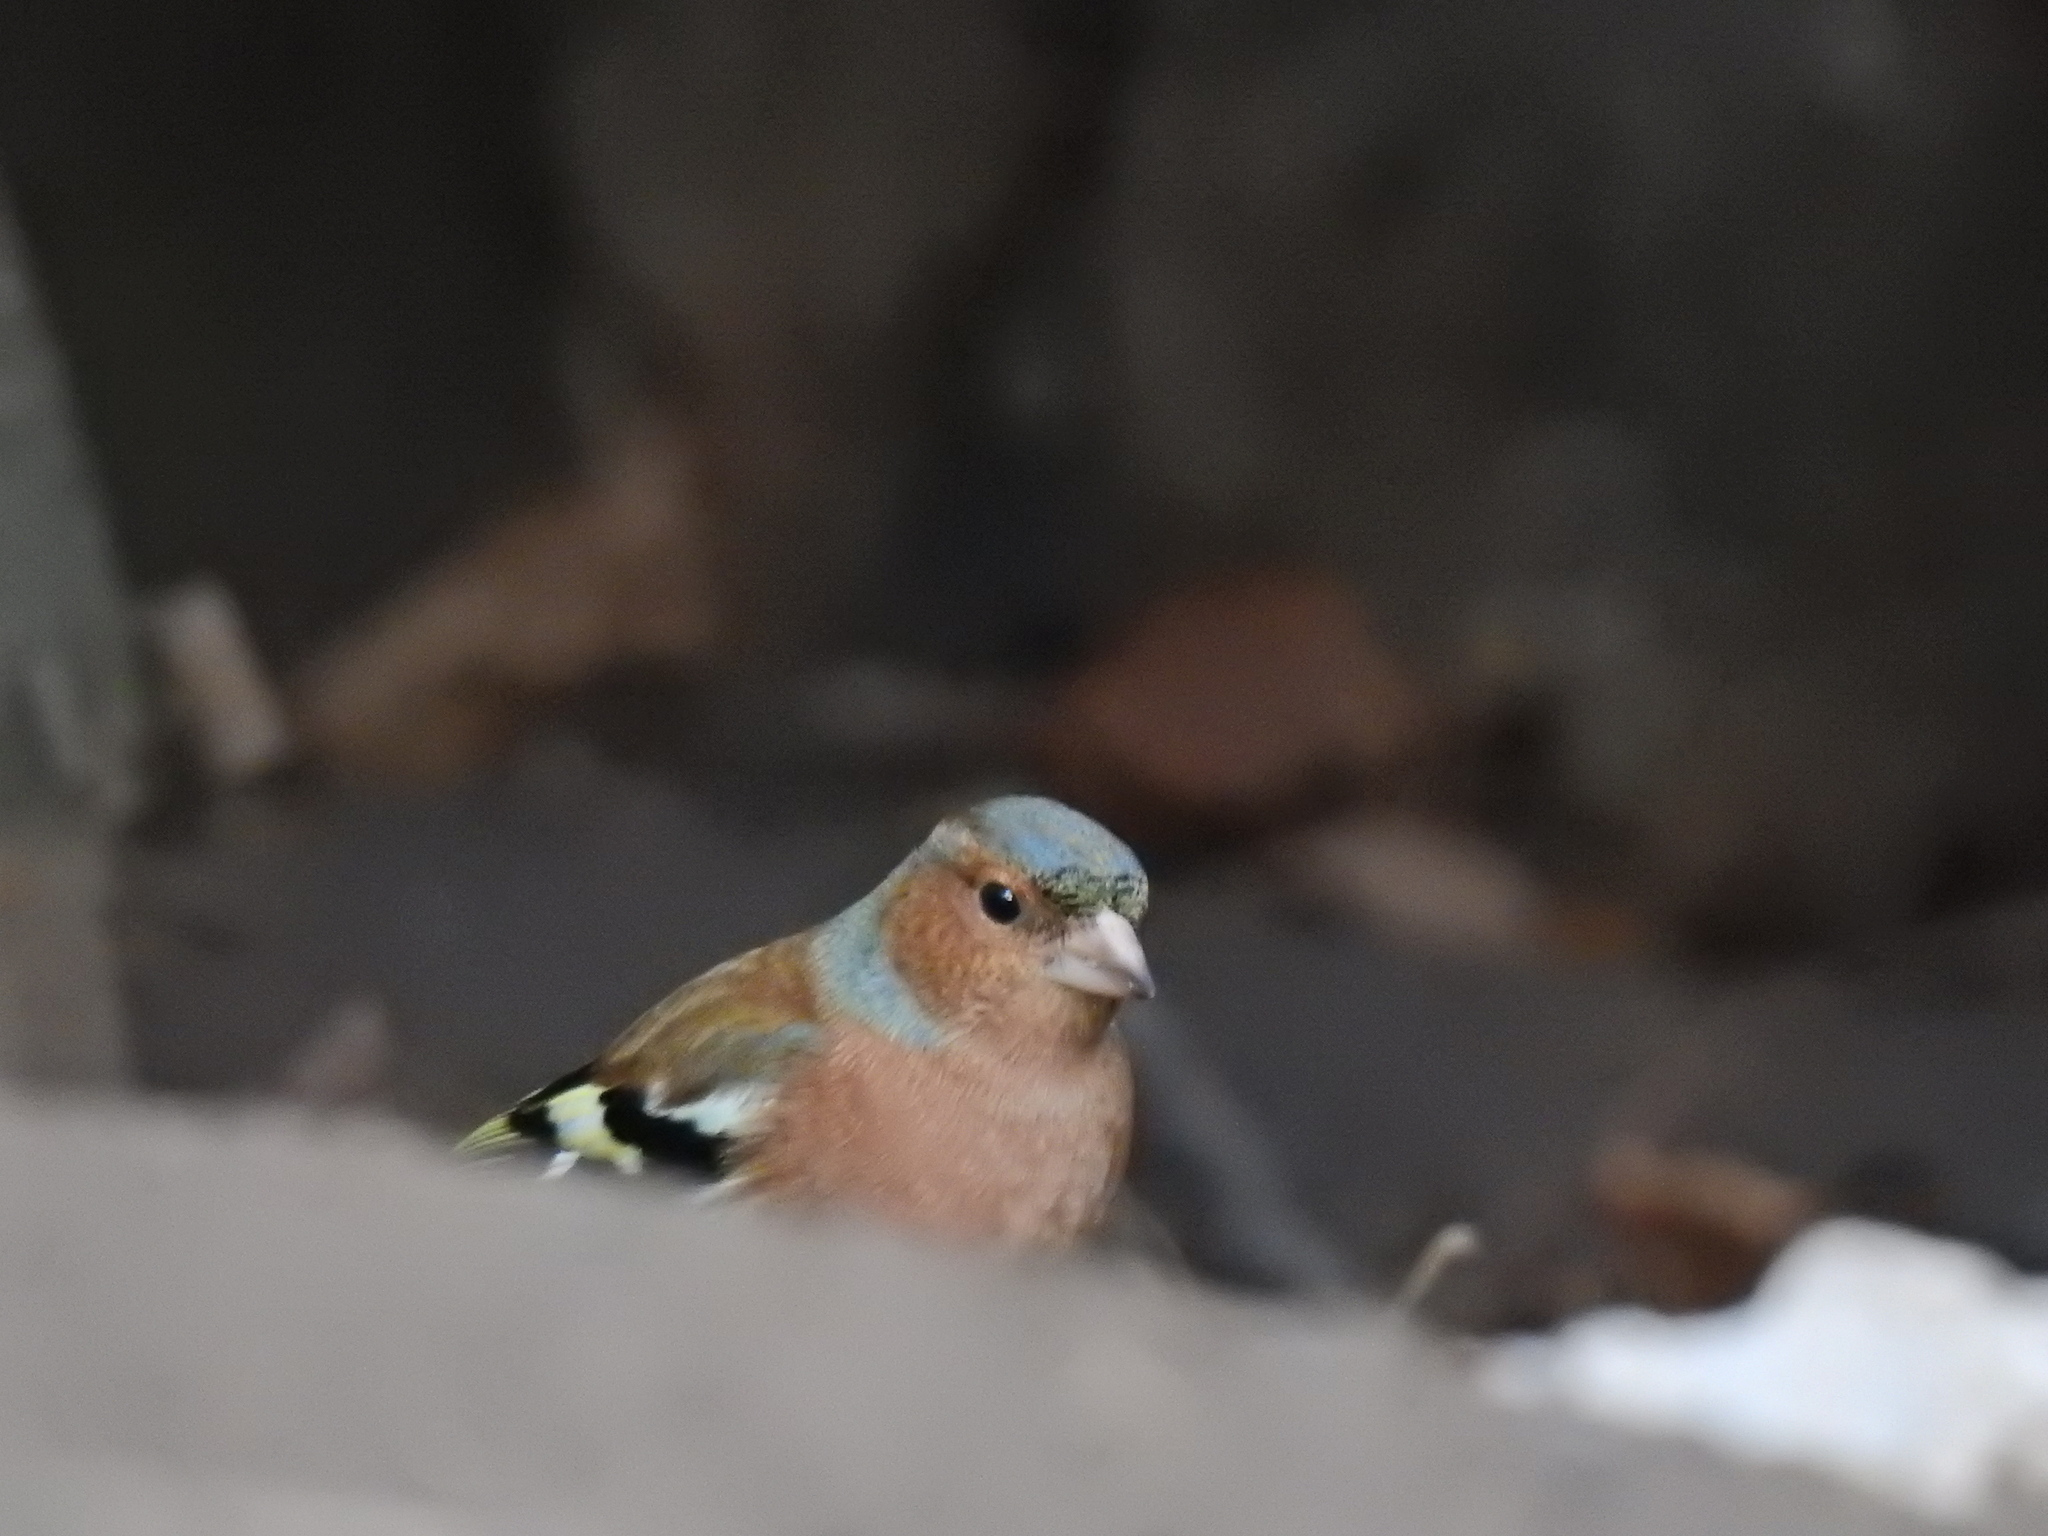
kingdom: Animalia
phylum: Chordata
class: Aves
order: Passeriformes
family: Fringillidae
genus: Fringilla
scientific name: Fringilla coelebs
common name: Common chaffinch
